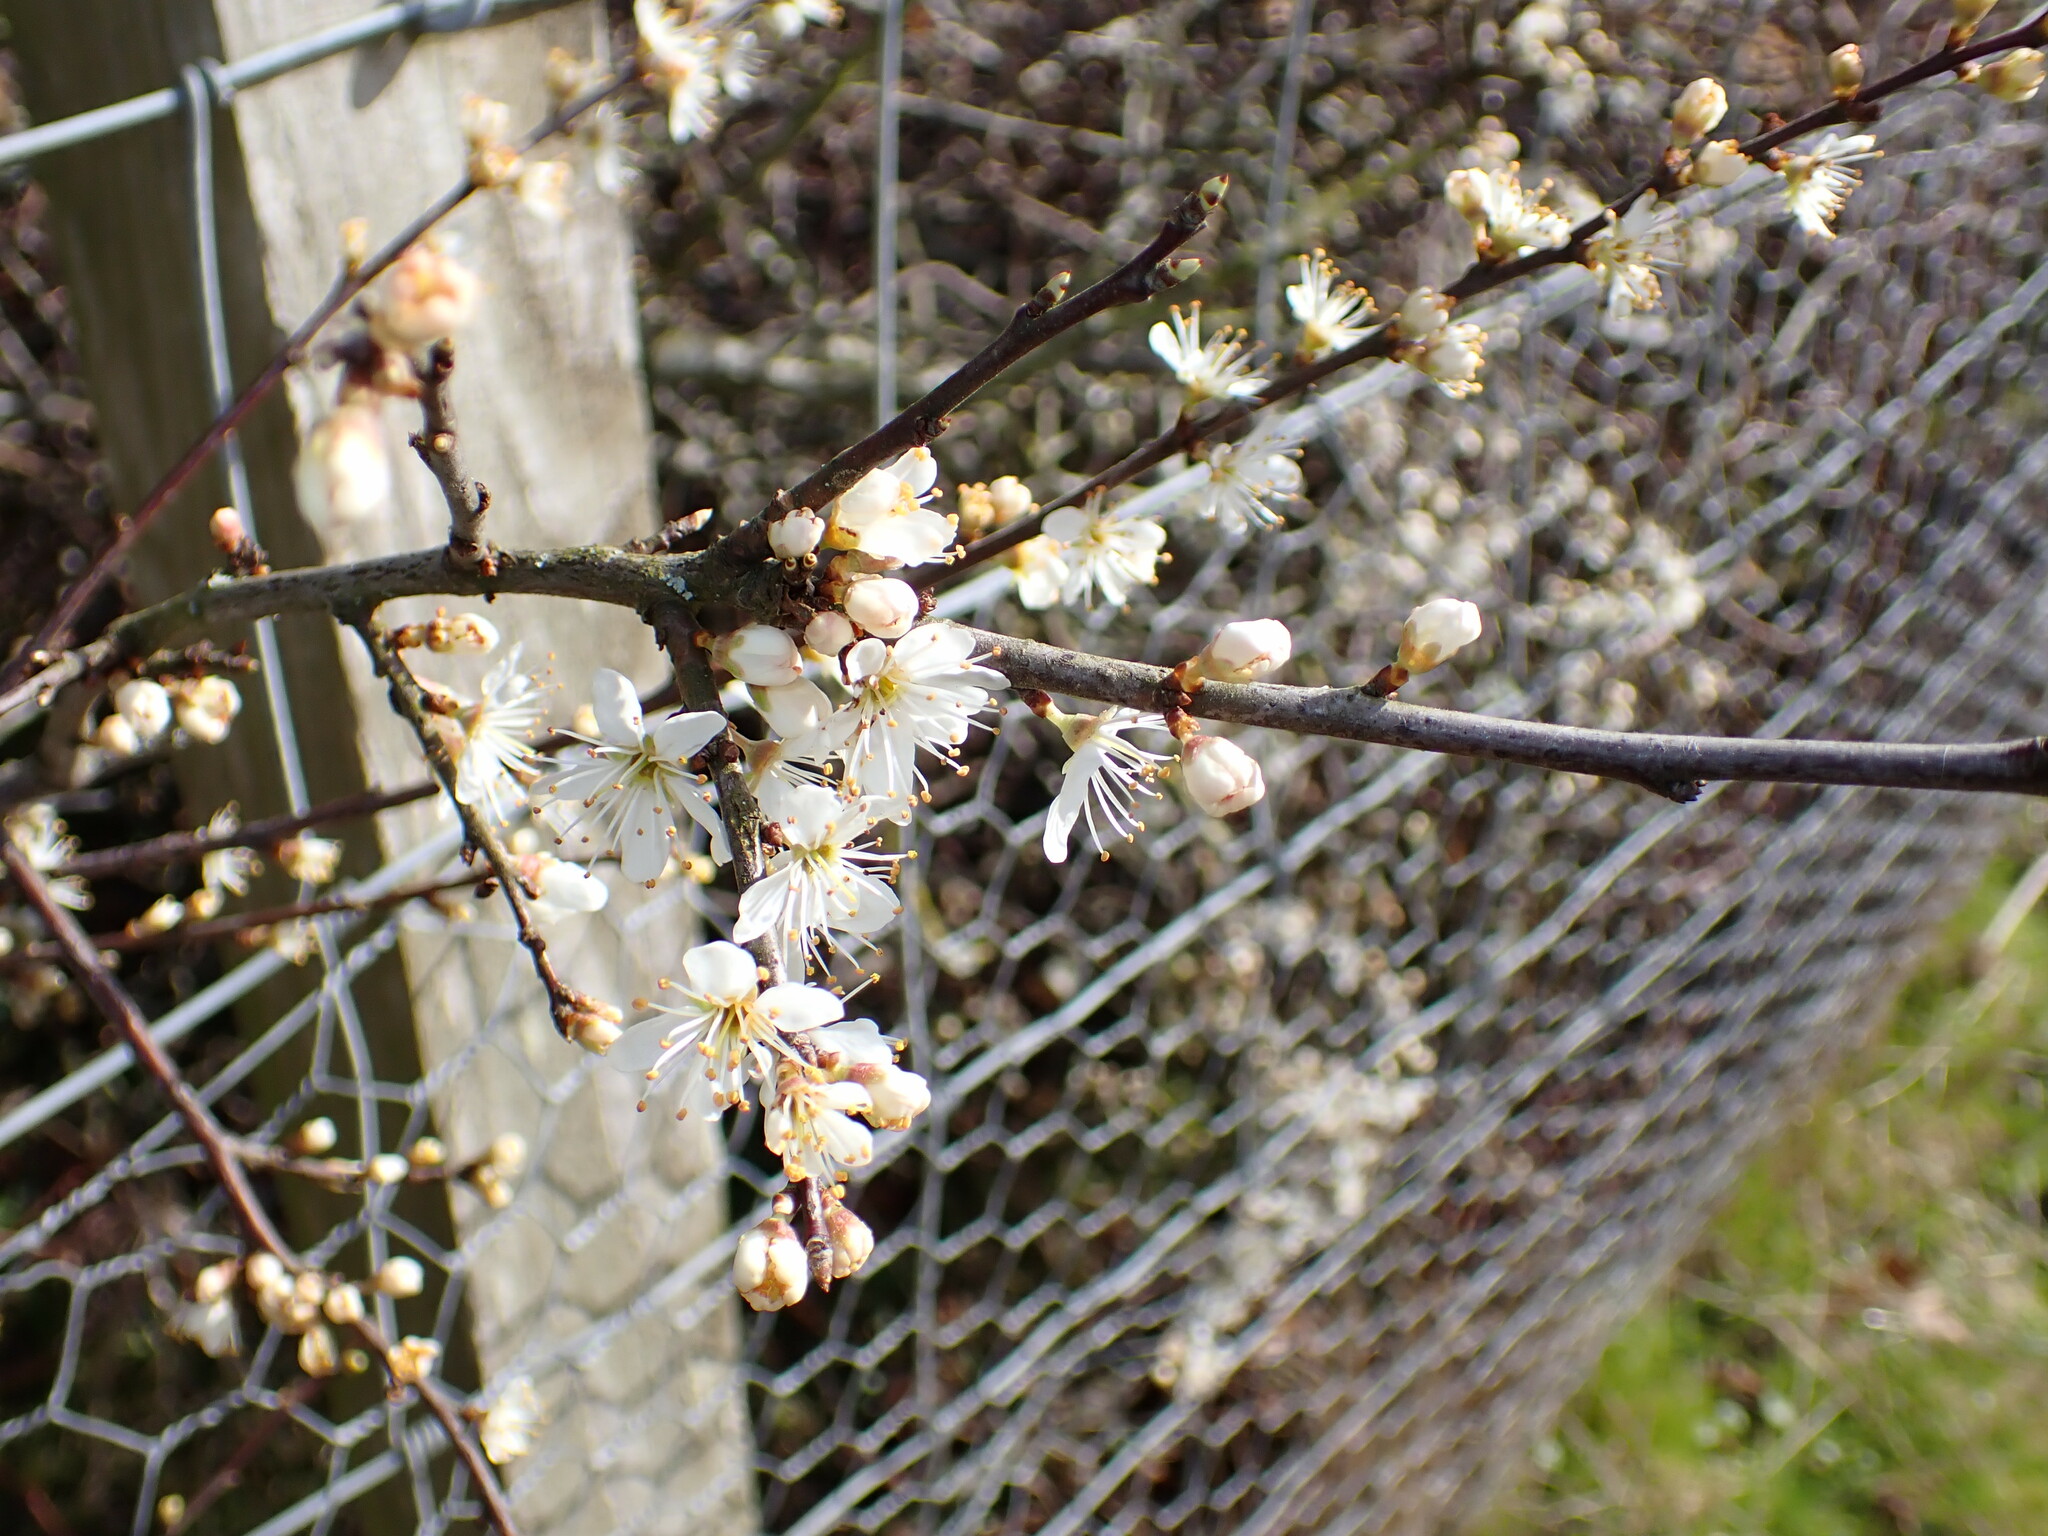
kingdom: Plantae
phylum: Tracheophyta
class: Magnoliopsida
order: Rosales
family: Rosaceae
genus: Prunus
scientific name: Prunus spinosa
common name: Blackthorn
